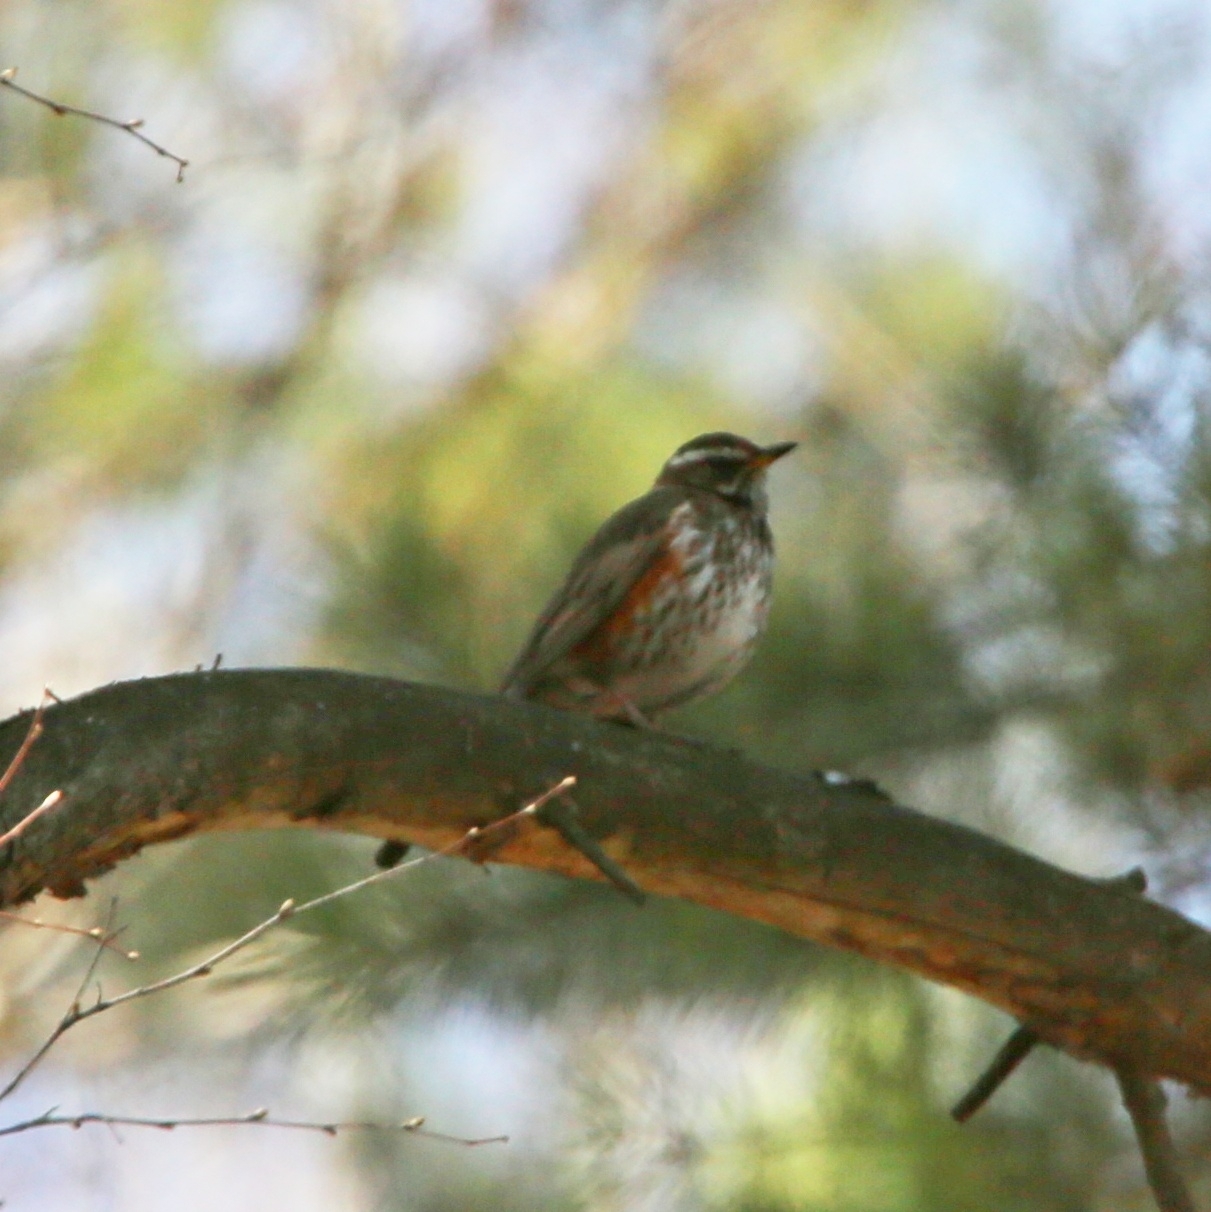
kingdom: Animalia
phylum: Chordata
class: Aves
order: Passeriformes
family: Turdidae
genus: Turdus
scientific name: Turdus iliacus
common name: Redwing
